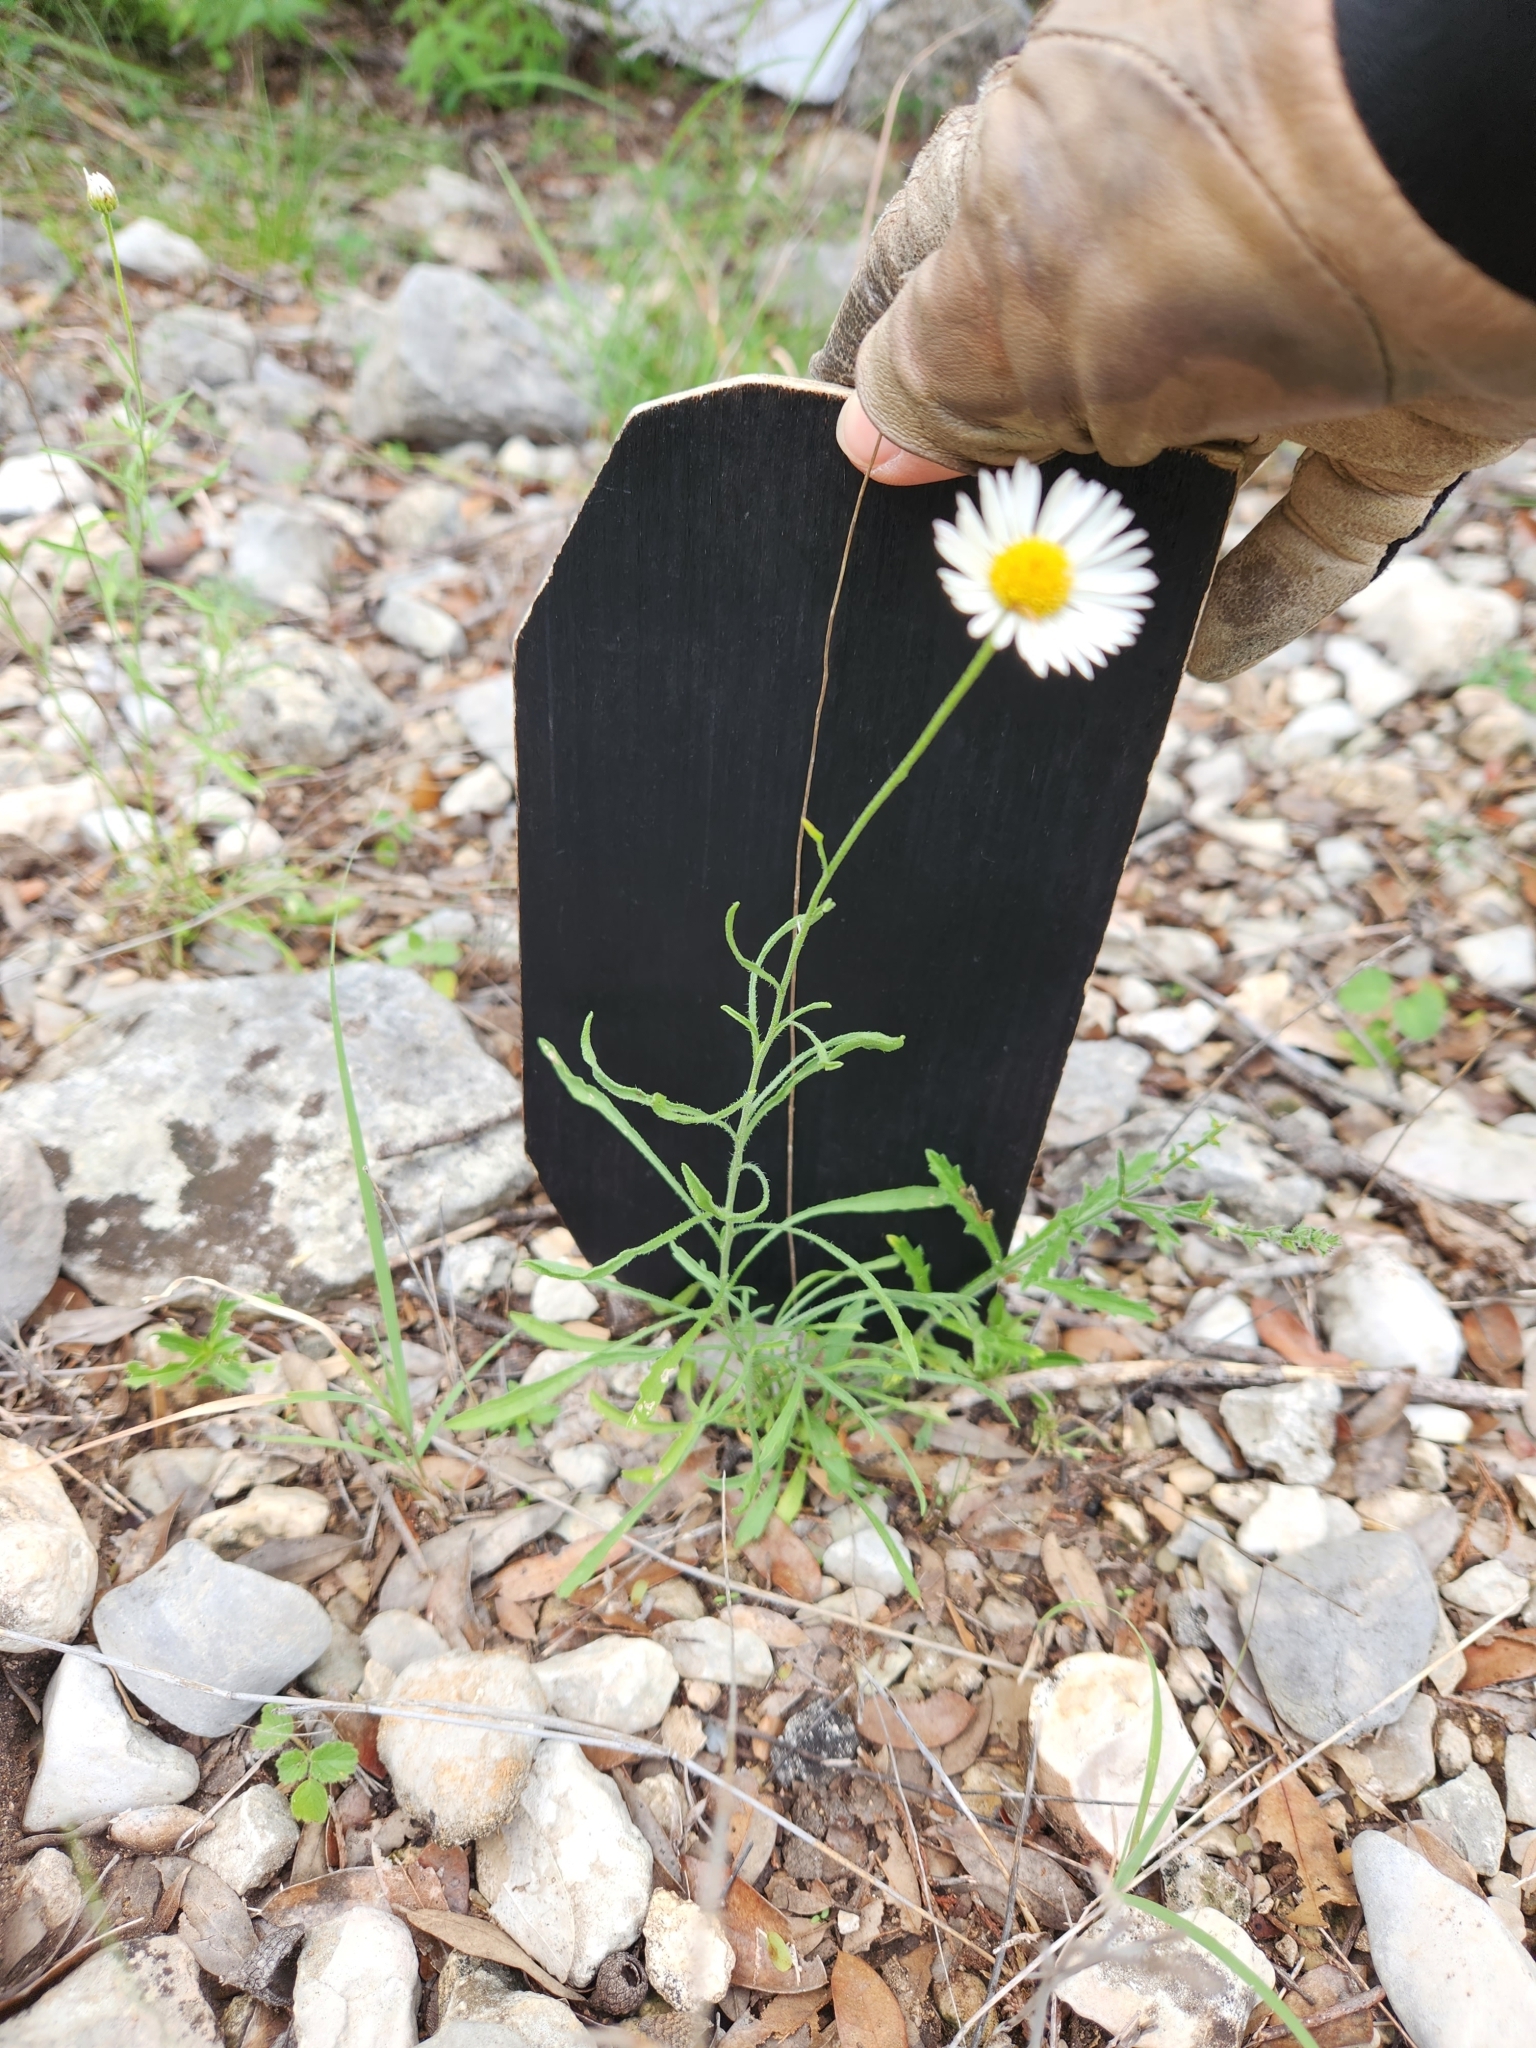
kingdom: Plantae
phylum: Tracheophyta
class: Magnoliopsida
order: Asterales
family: Asteraceae
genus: Erigeron
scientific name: Erigeron modestus
